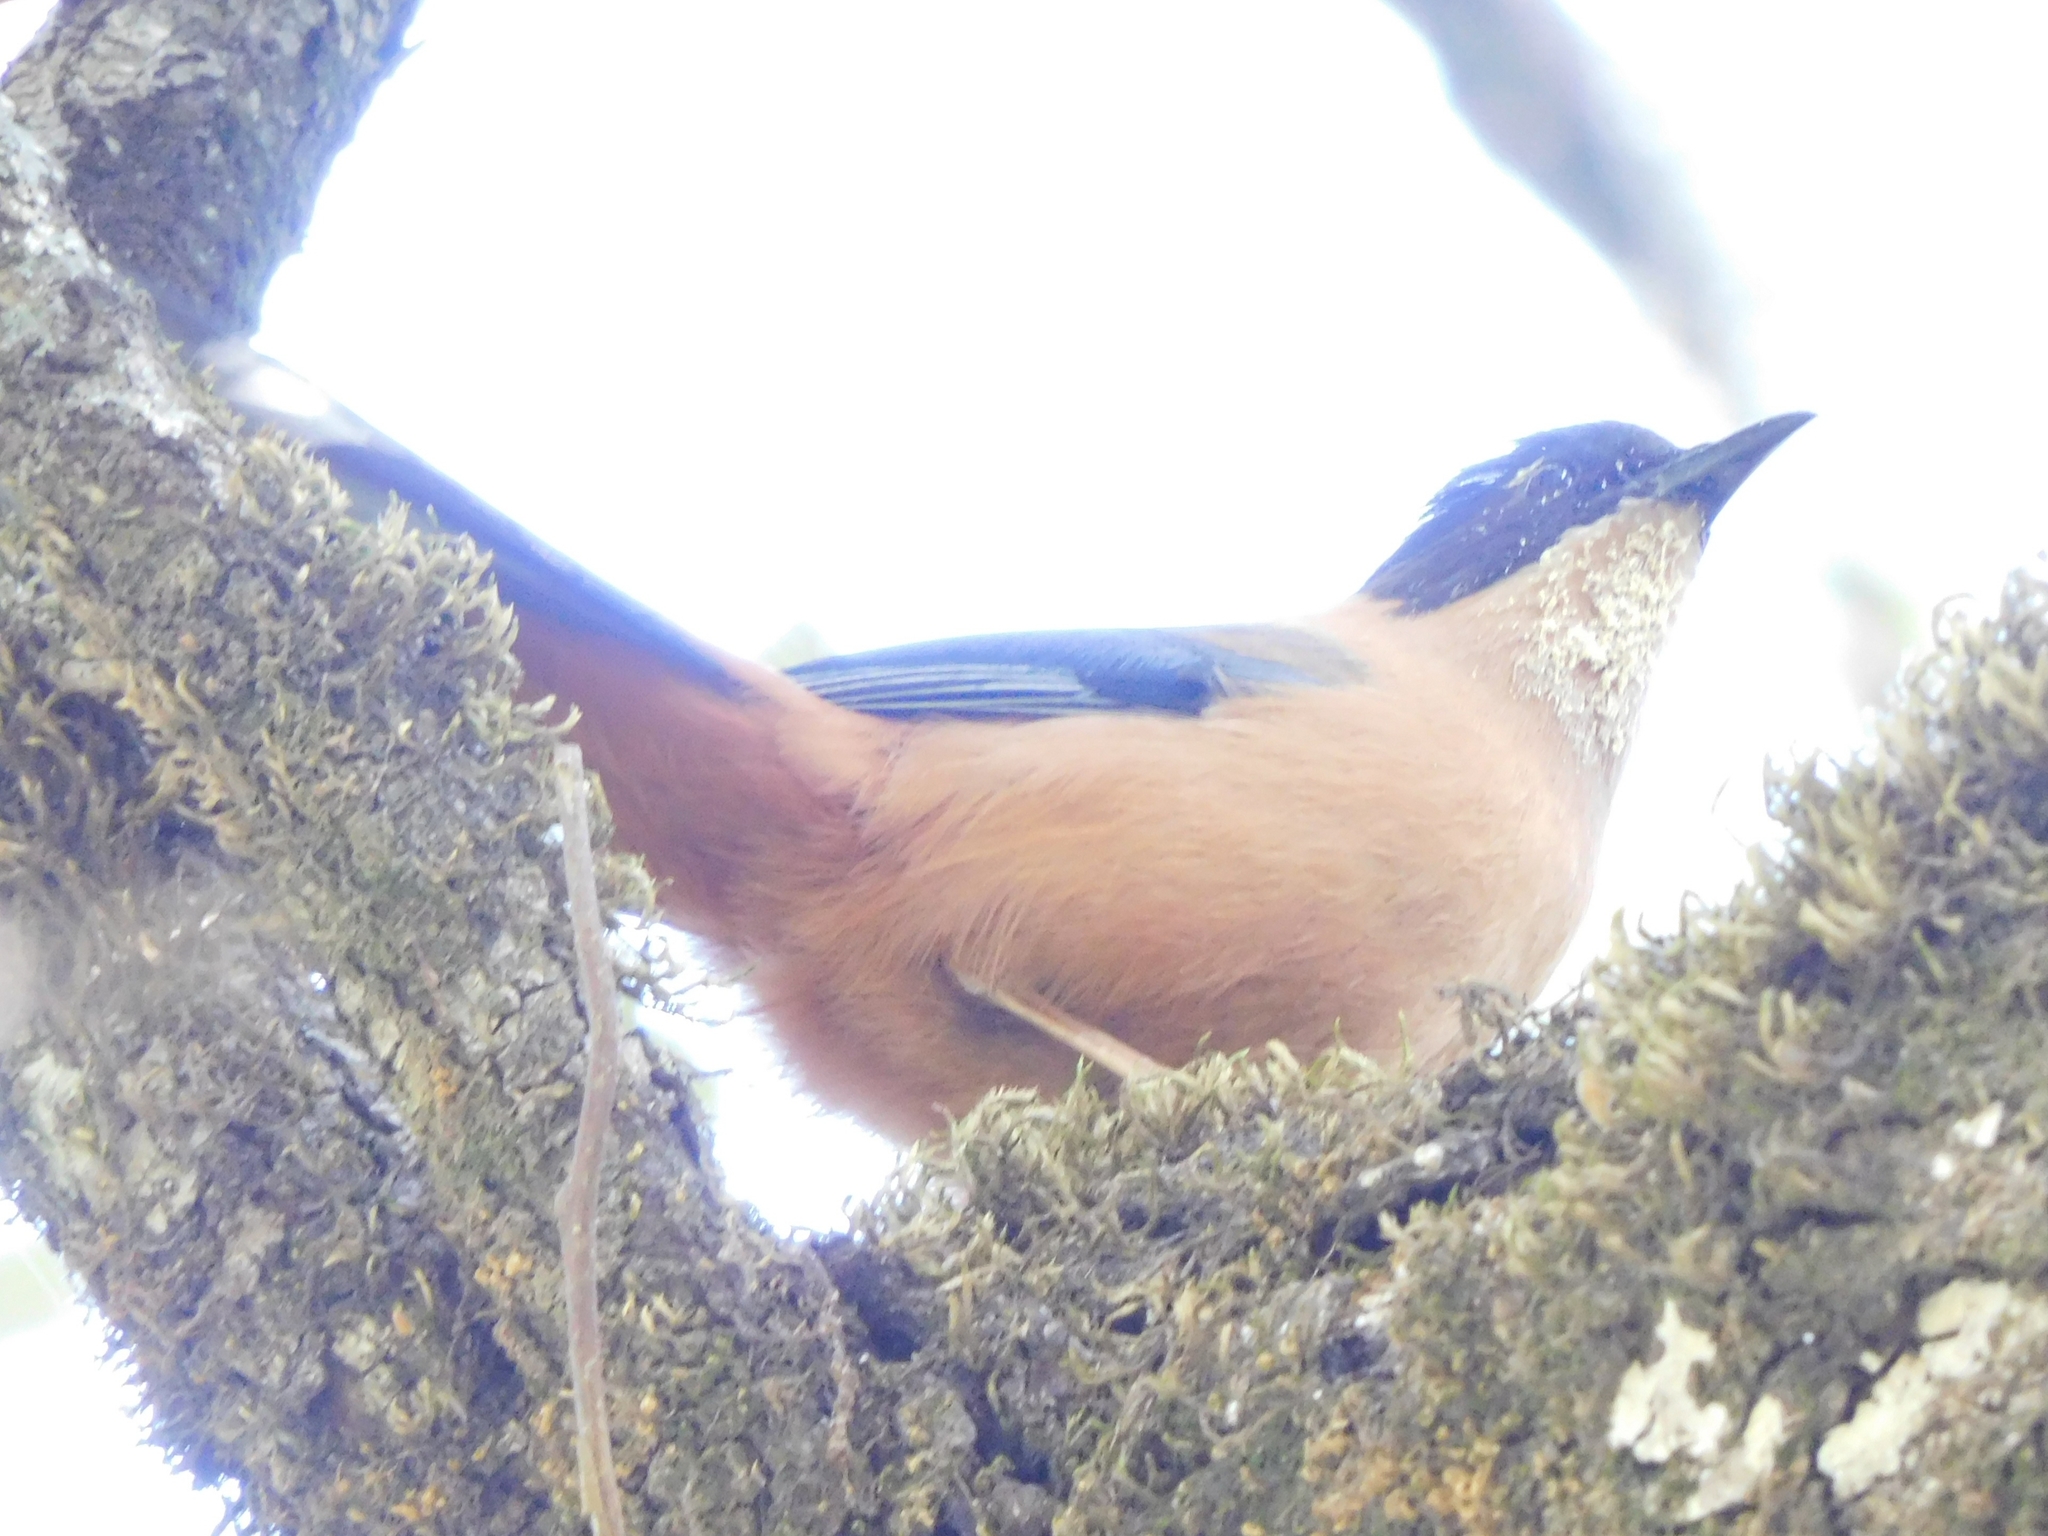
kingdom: Animalia
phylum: Chordata
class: Aves
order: Passeriformes
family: Leiothrichidae
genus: Heterophasia
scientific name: Heterophasia capistrata
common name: Rufous sibia
